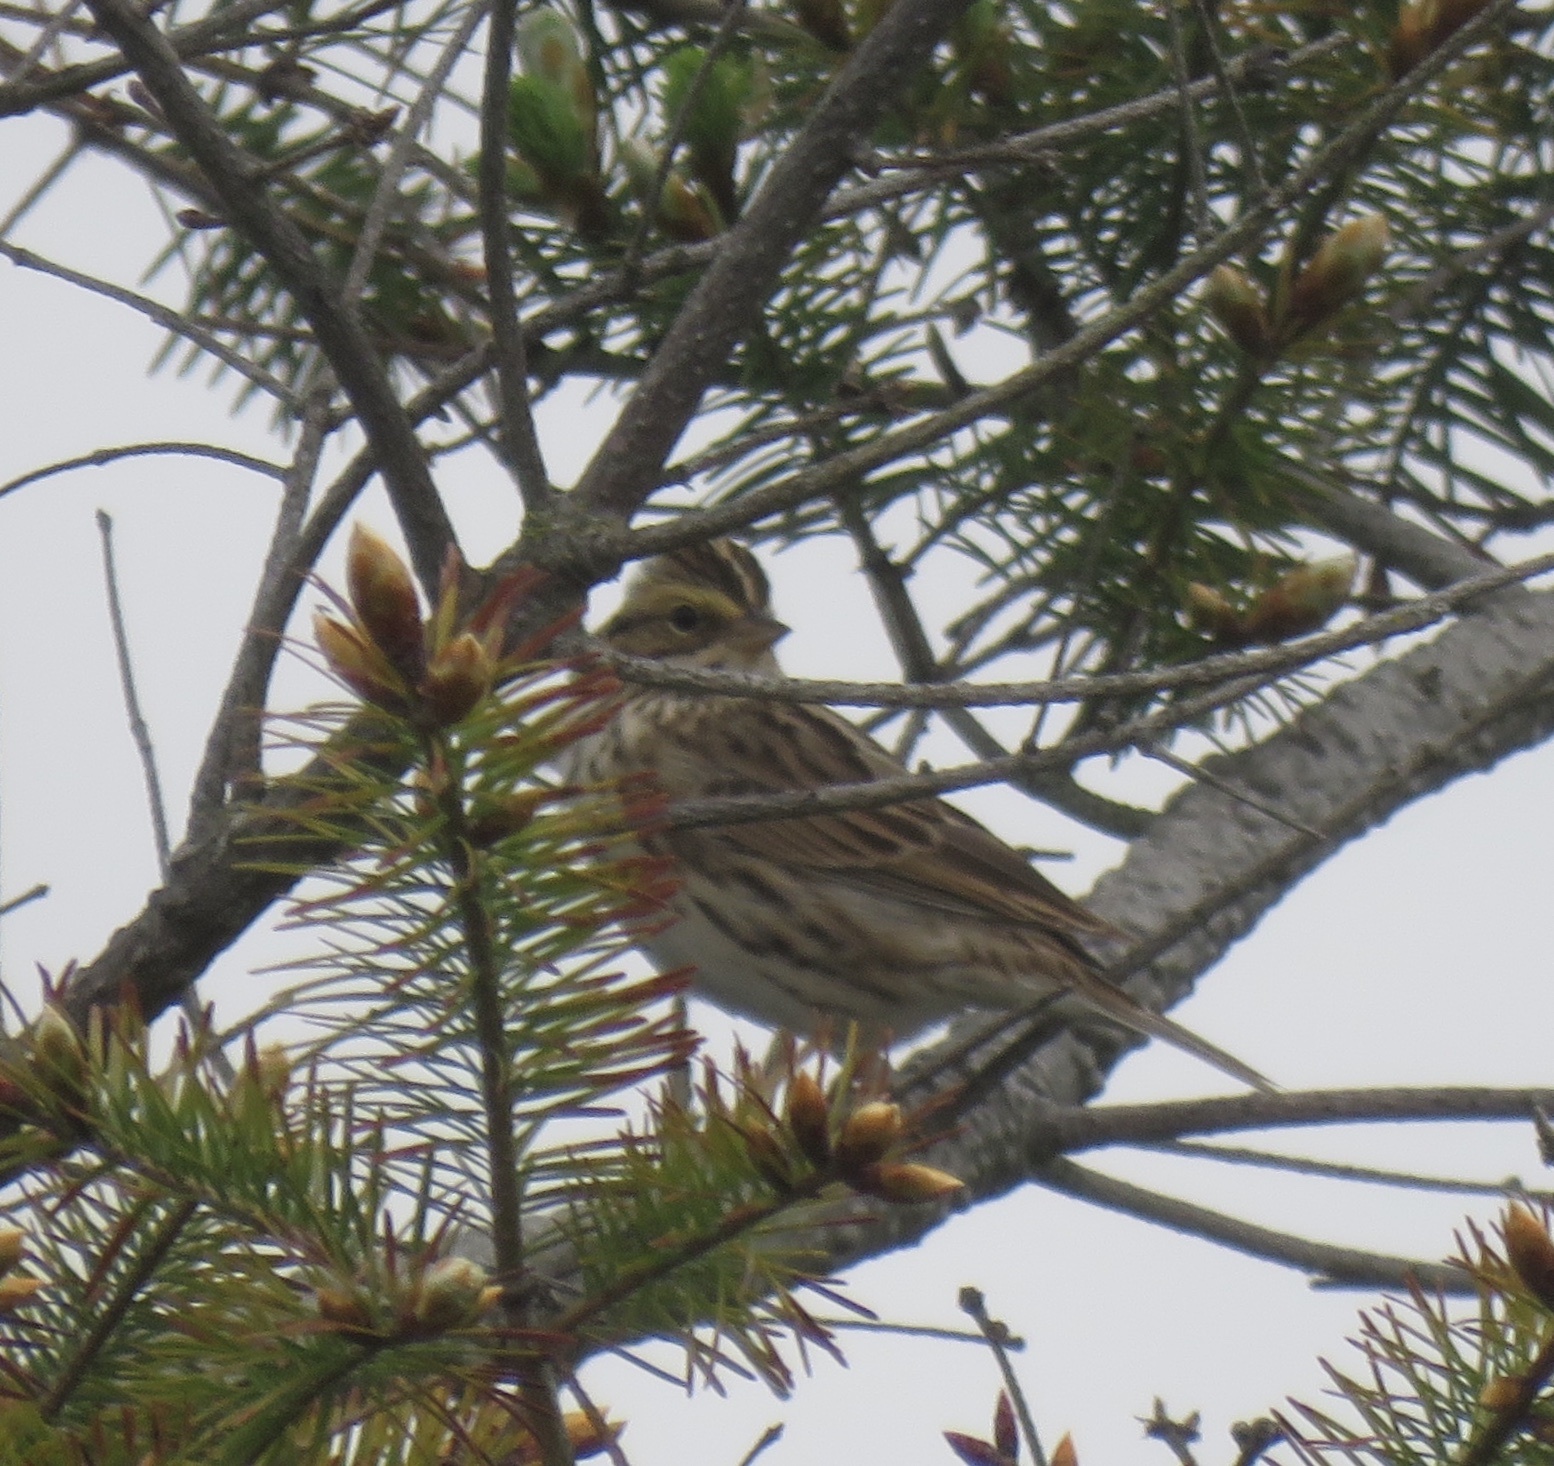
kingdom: Animalia
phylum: Chordata
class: Aves
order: Passeriformes
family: Passerellidae
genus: Passerculus
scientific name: Passerculus sandwichensis
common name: Savannah sparrow
